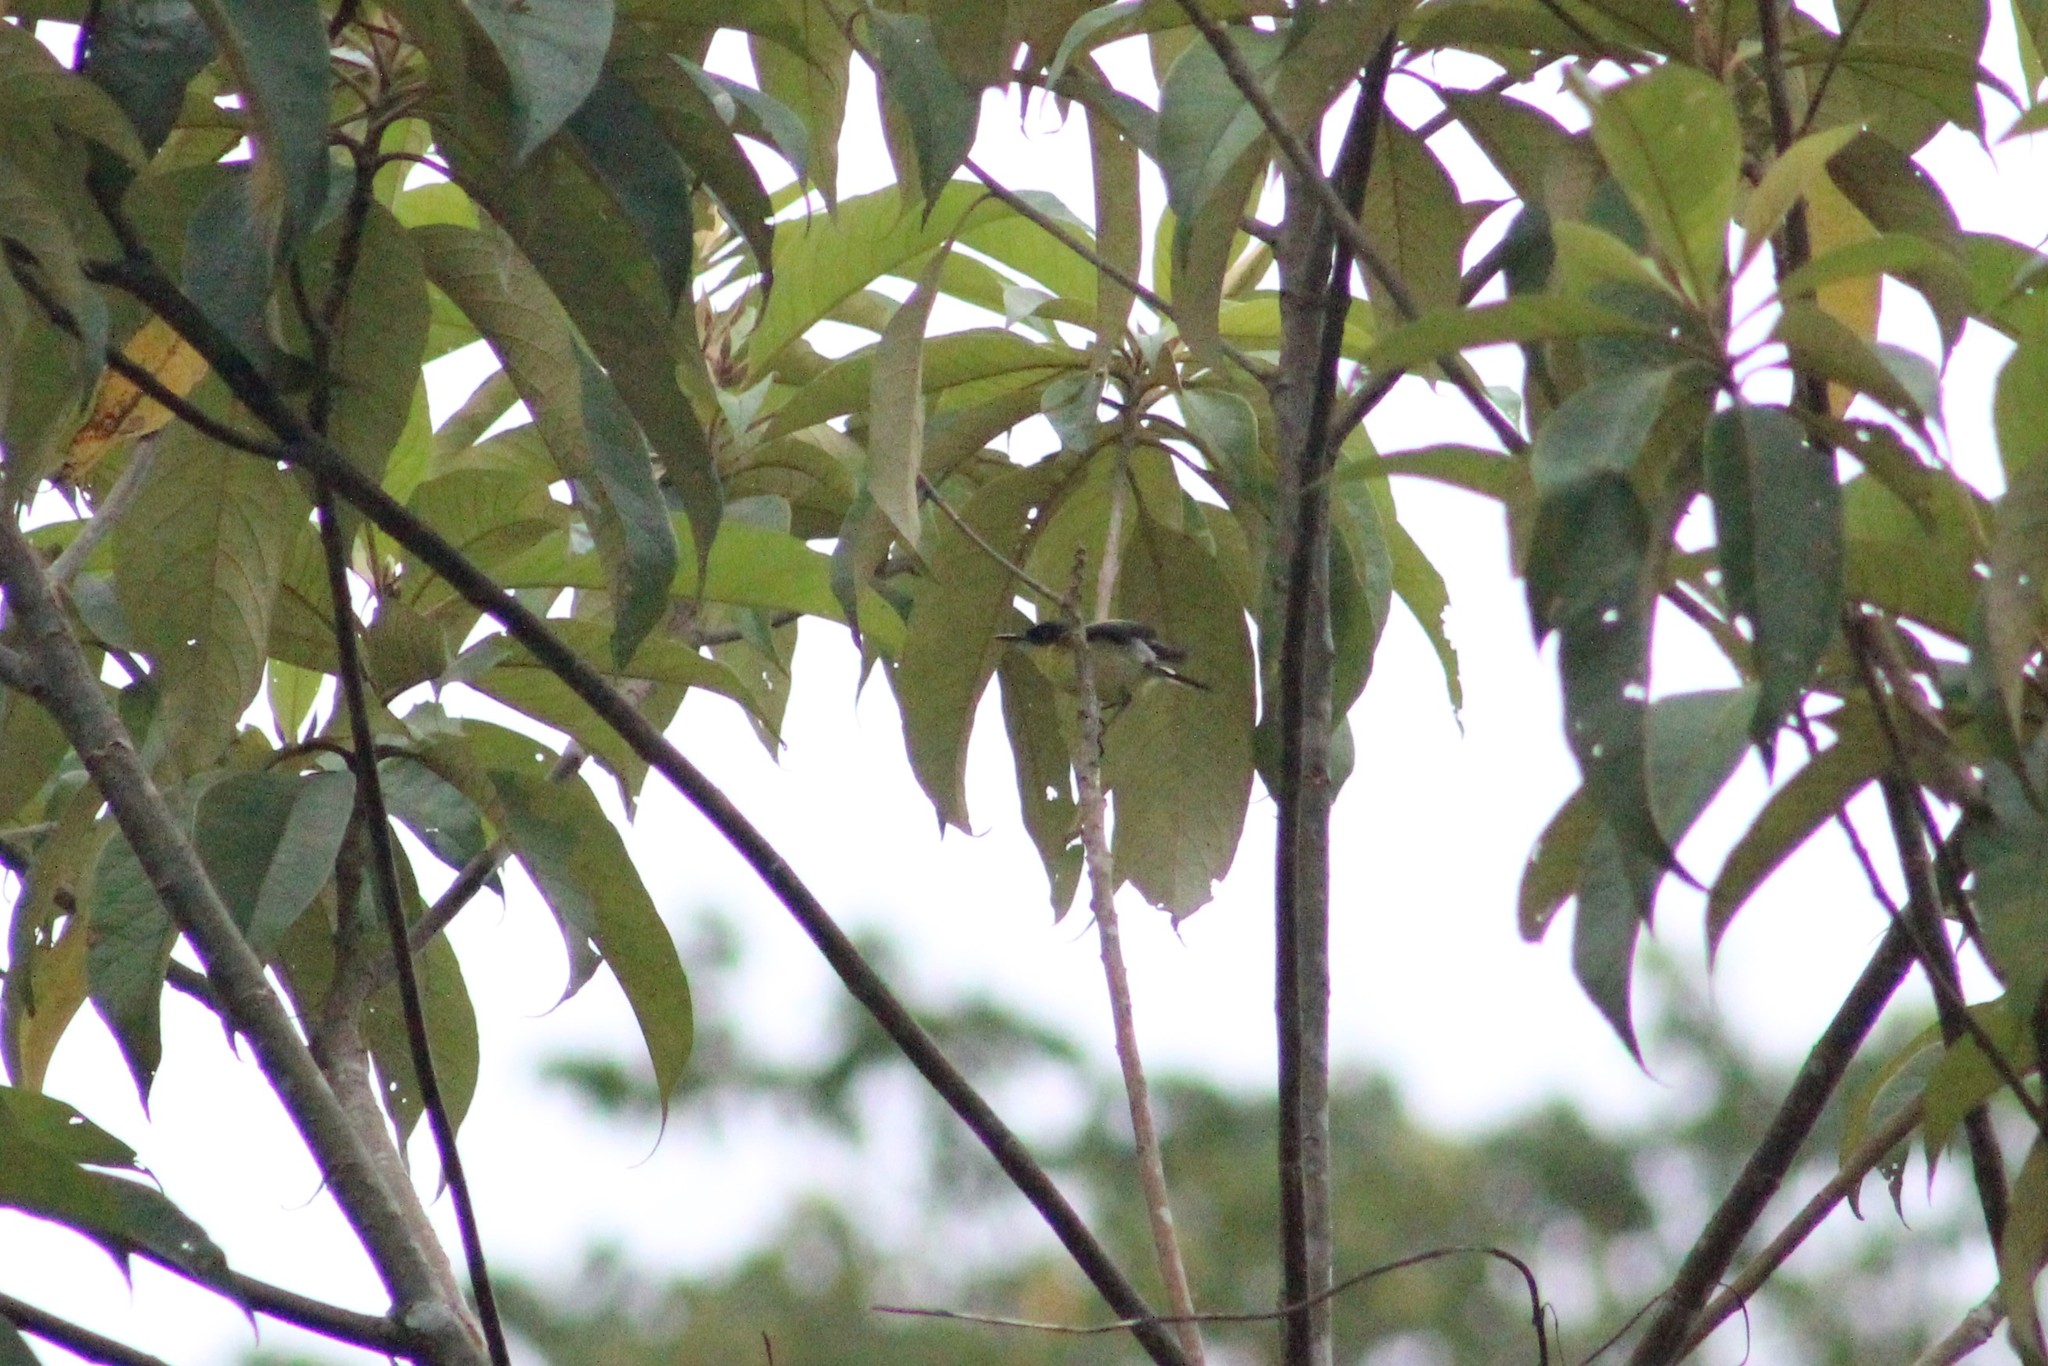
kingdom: Animalia
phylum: Chordata
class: Aves
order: Passeriformes
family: Tyrannidae
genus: Todirostrum
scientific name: Todirostrum cinereum
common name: Common tody-flycatcher
